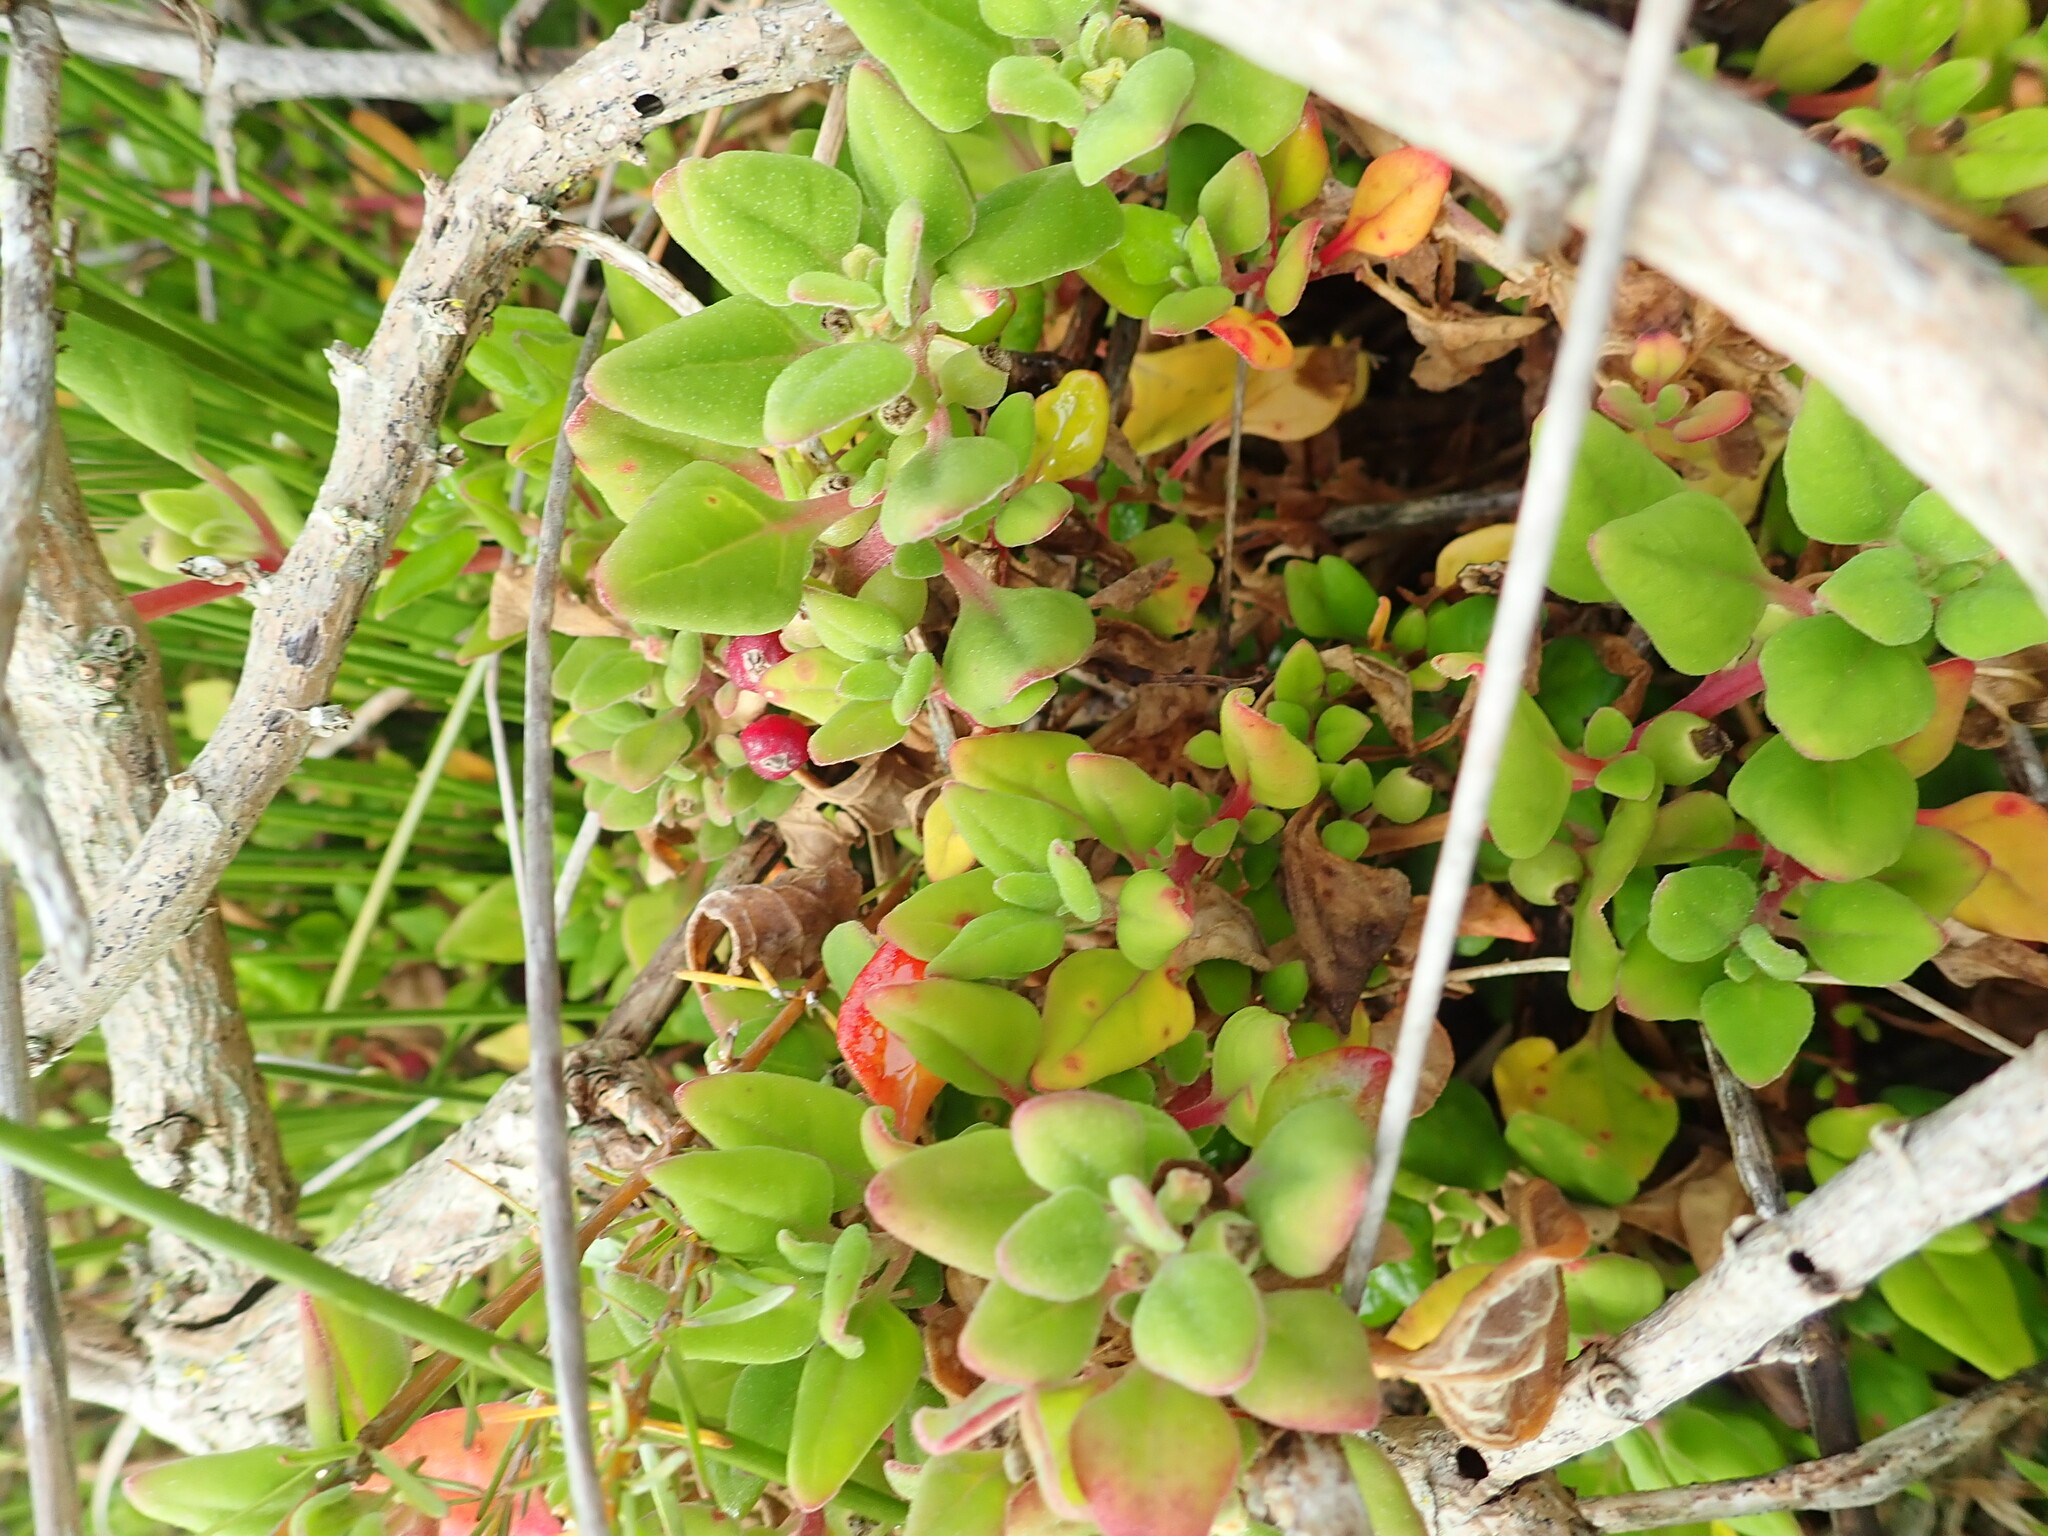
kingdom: Plantae
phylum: Tracheophyta
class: Magnoliopsida
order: Caryophyllales
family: Aizoaceae
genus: Tetragonia
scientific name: Tetragonia implexicoma
